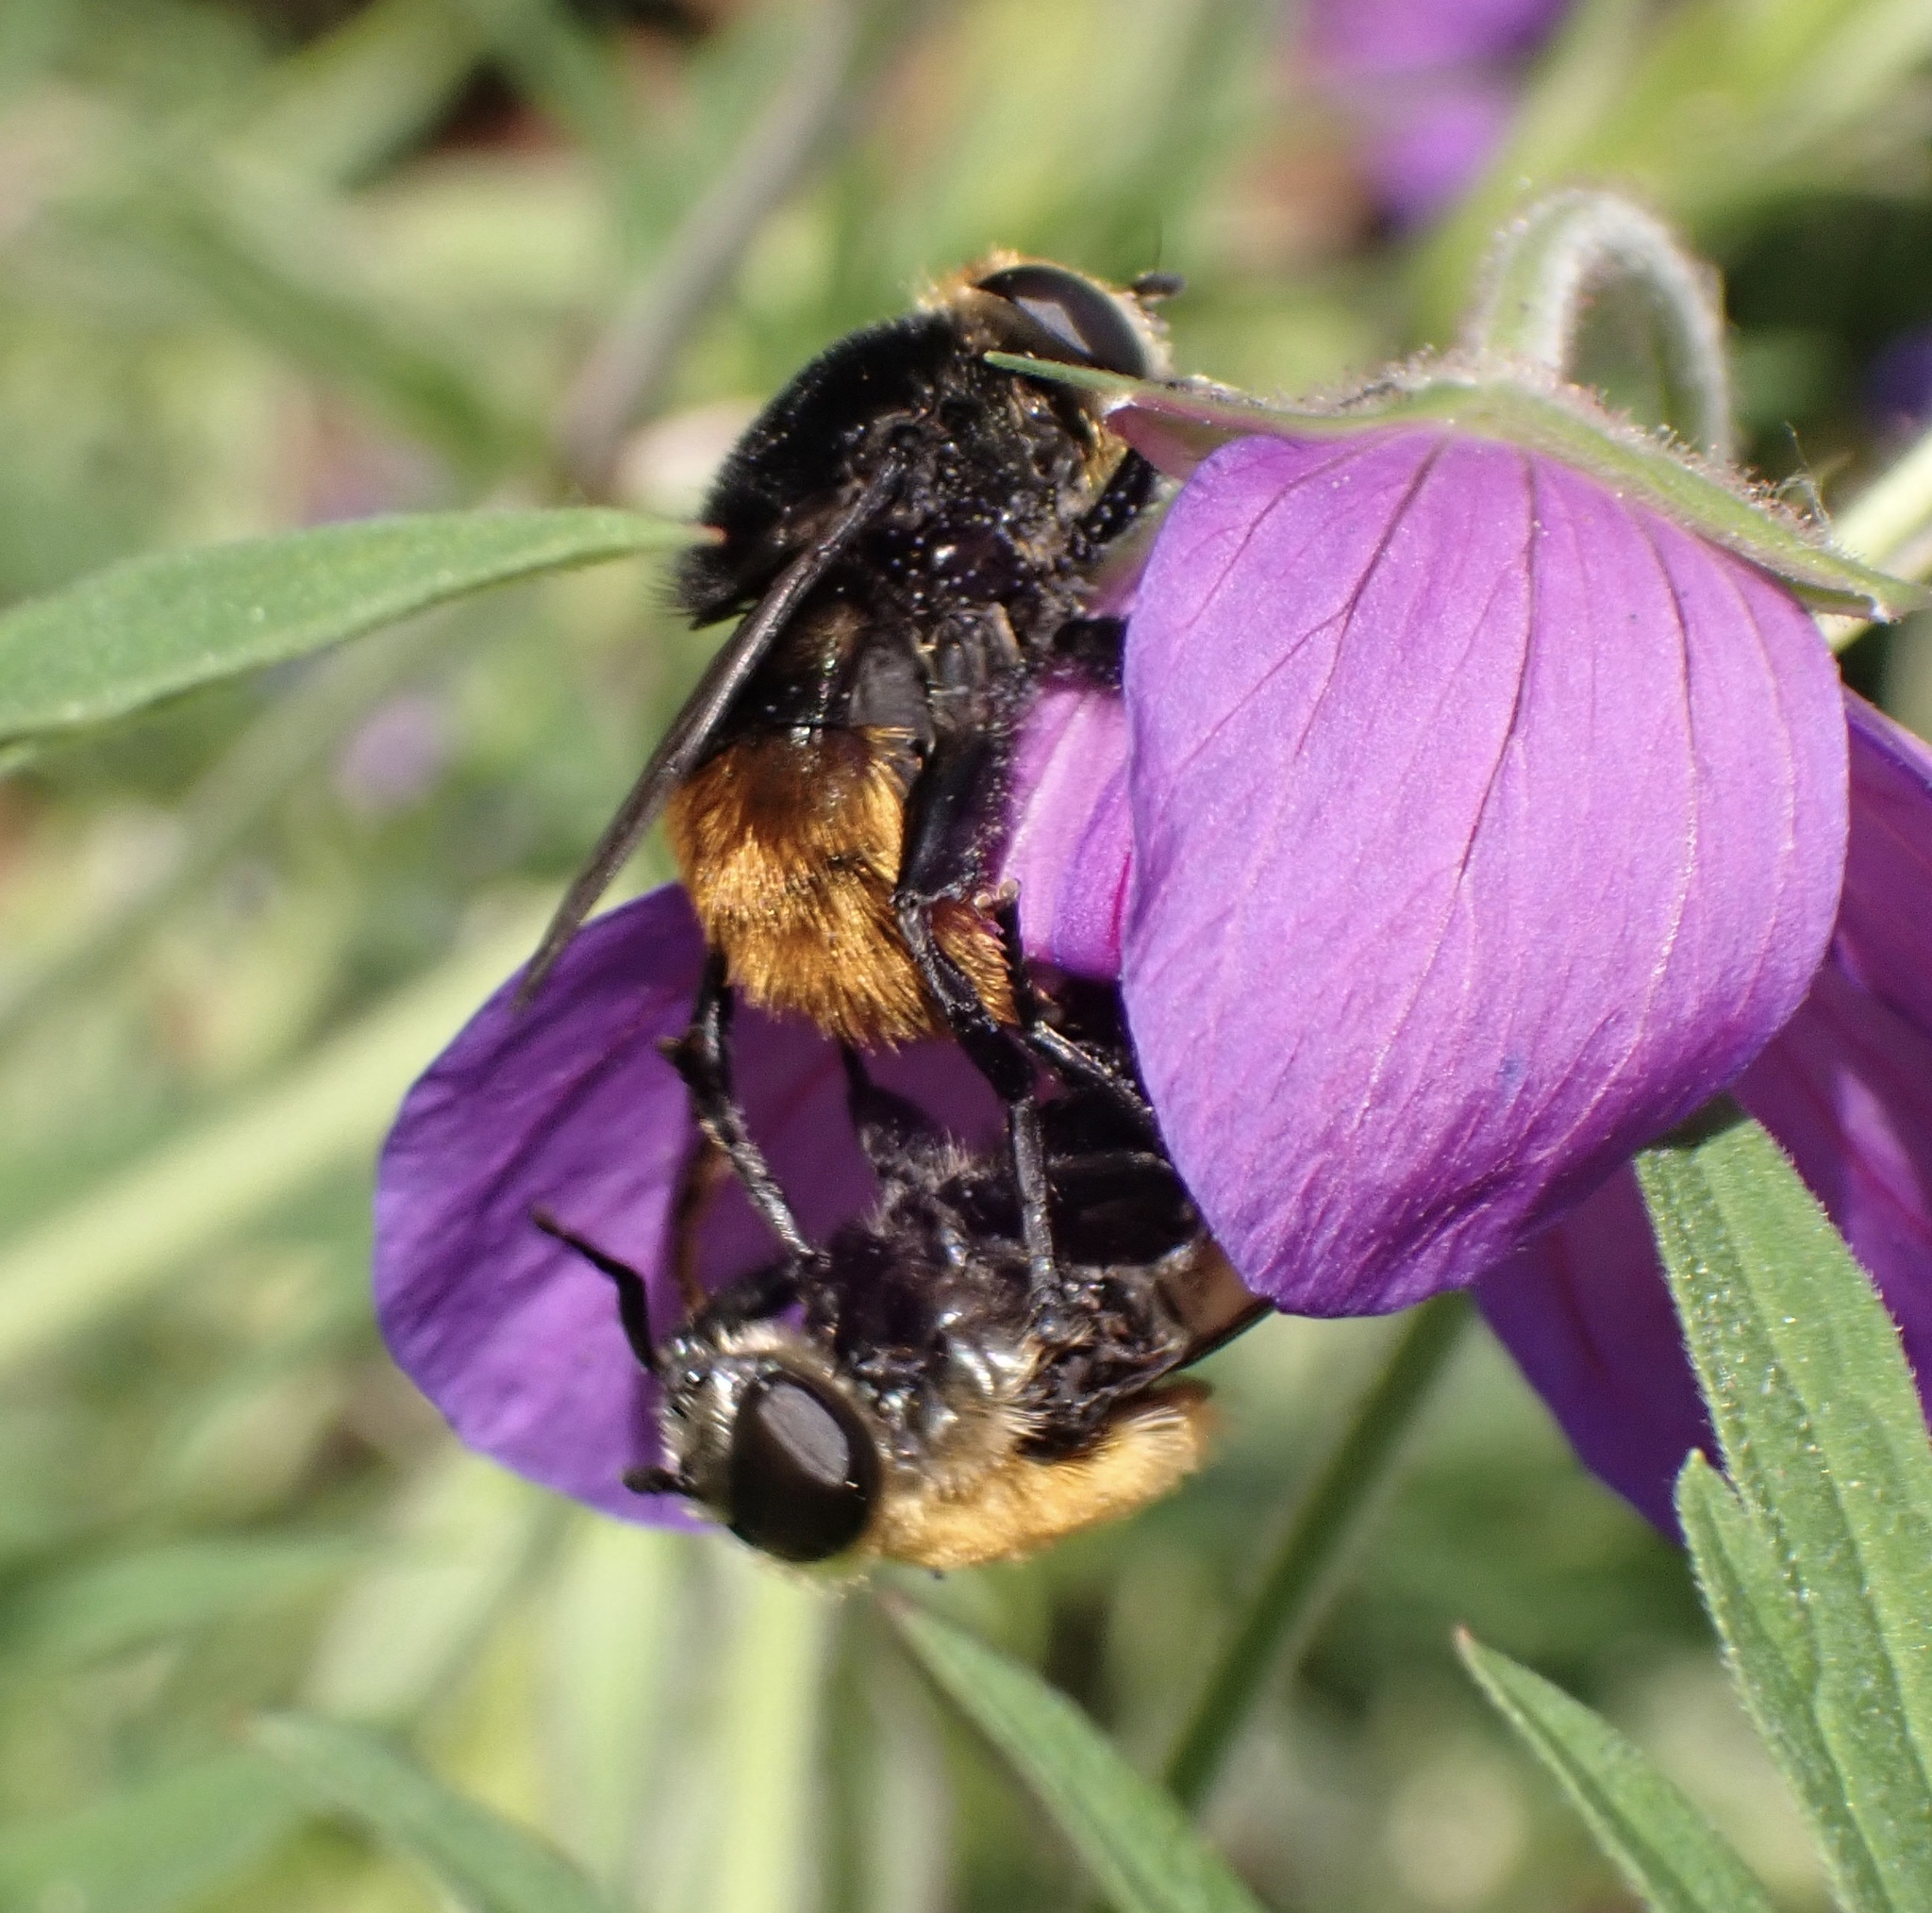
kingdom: Animalia
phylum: Arthropoda
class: Insecta
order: Diptera
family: Syrphidae
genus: Merodon
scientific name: Merodon equestris
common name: Greater bulb-fly
